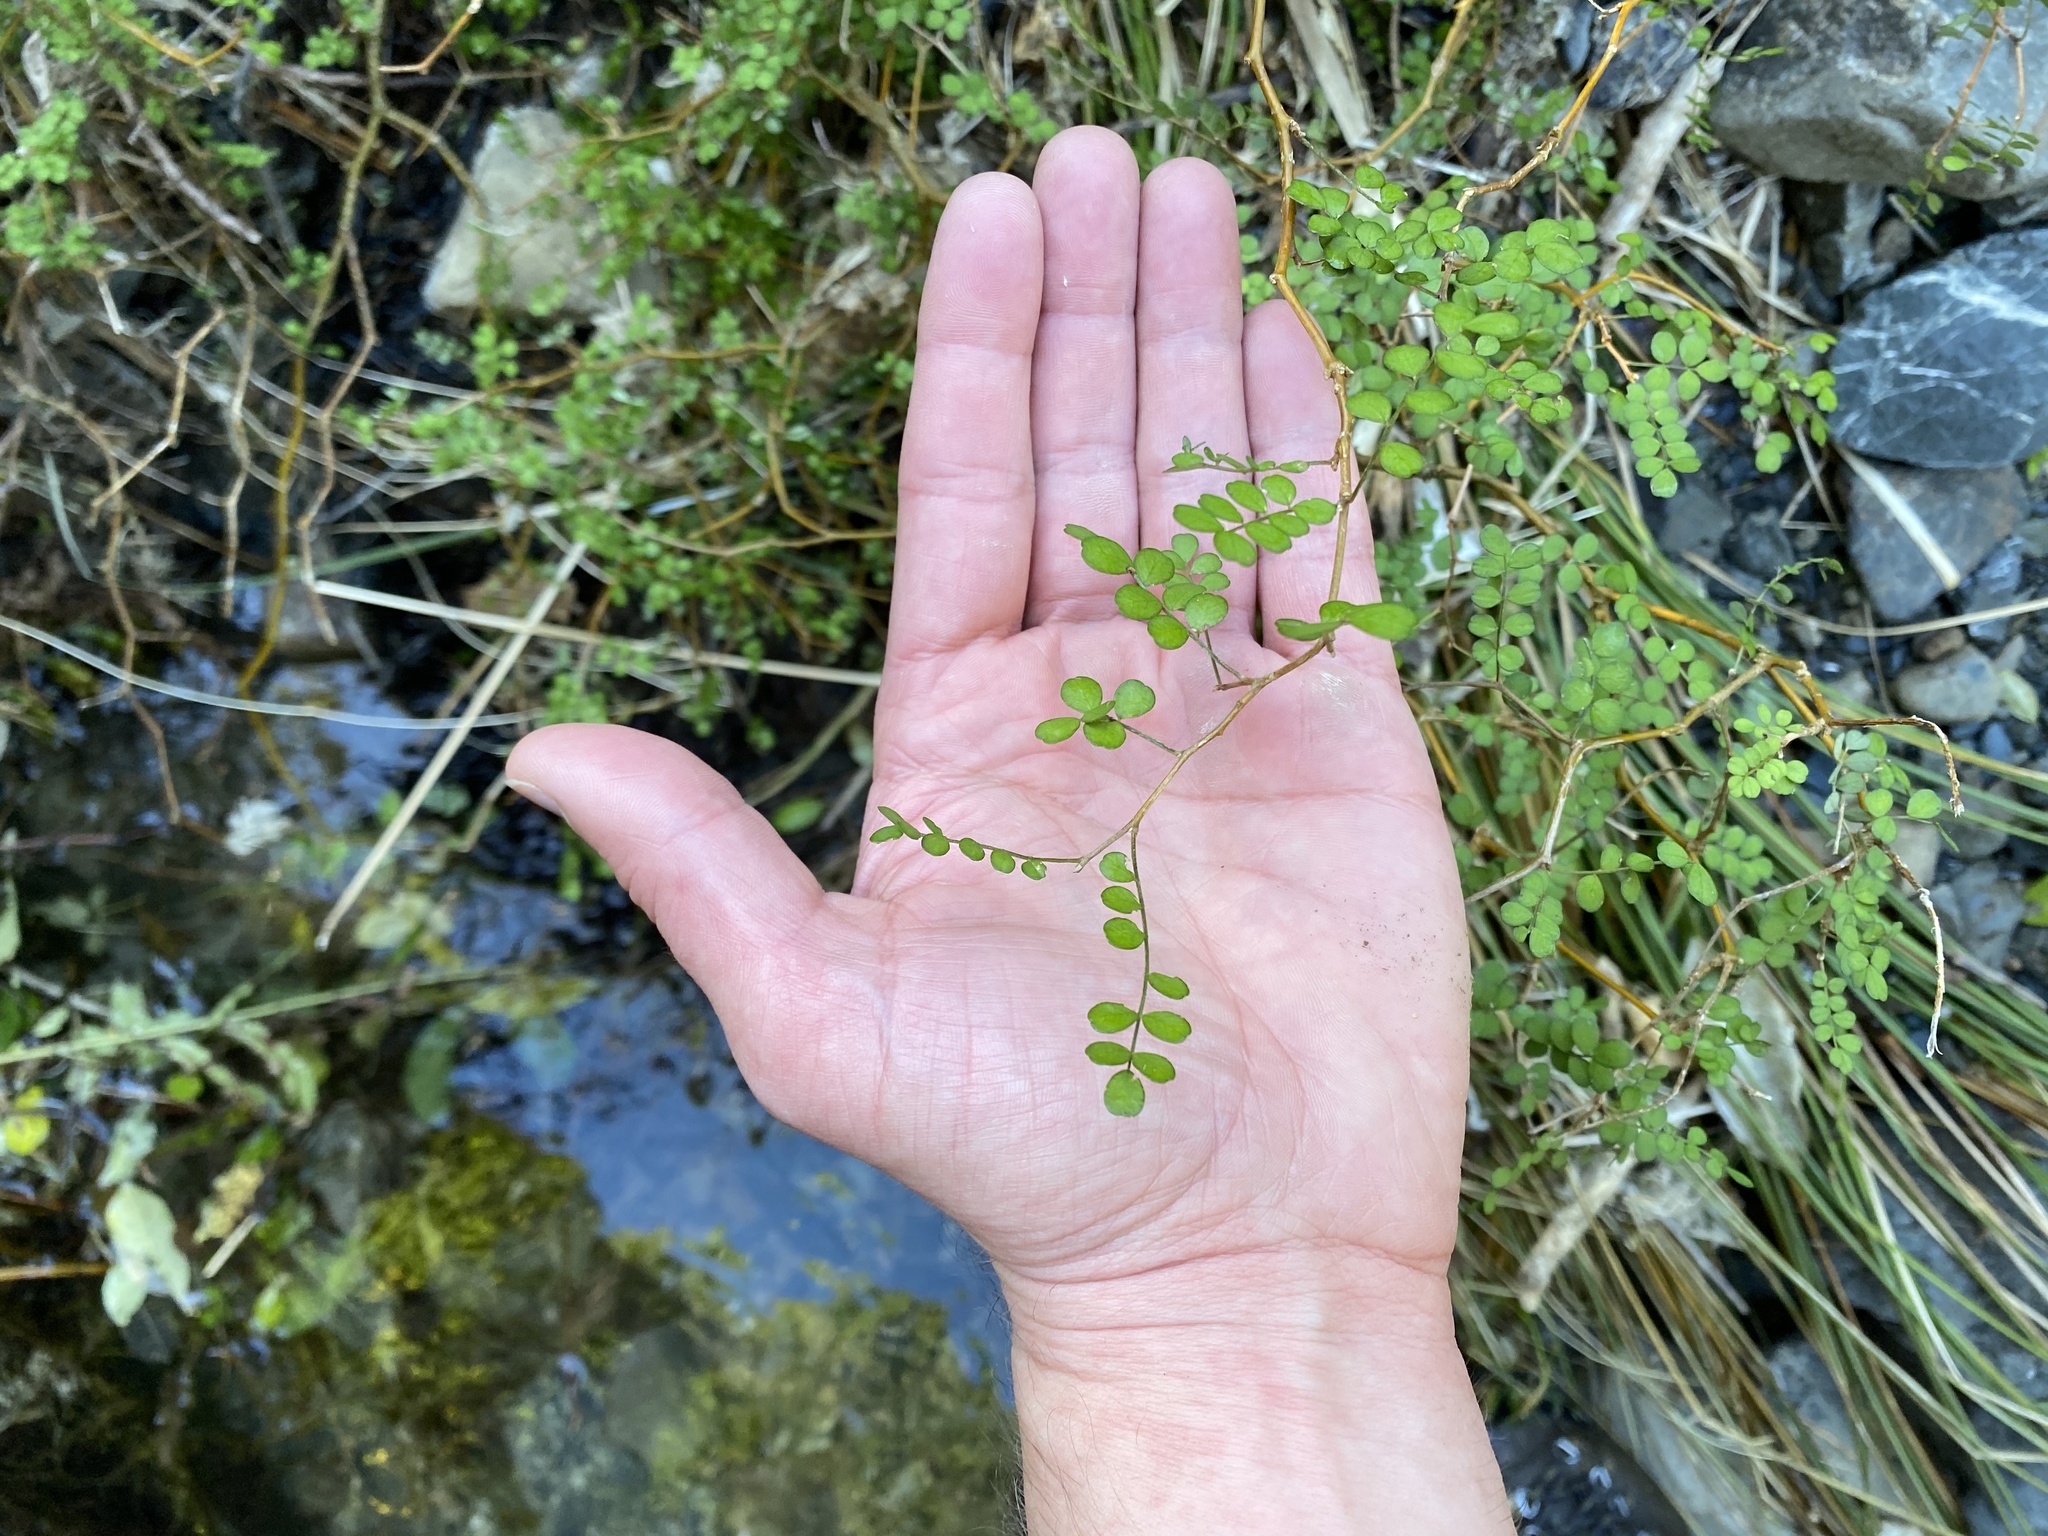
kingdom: Plantae
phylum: Tracheophyta
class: Magnoliopsida
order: Fabales
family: Fabaceae
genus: Sophora
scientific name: Sophora molloyi
